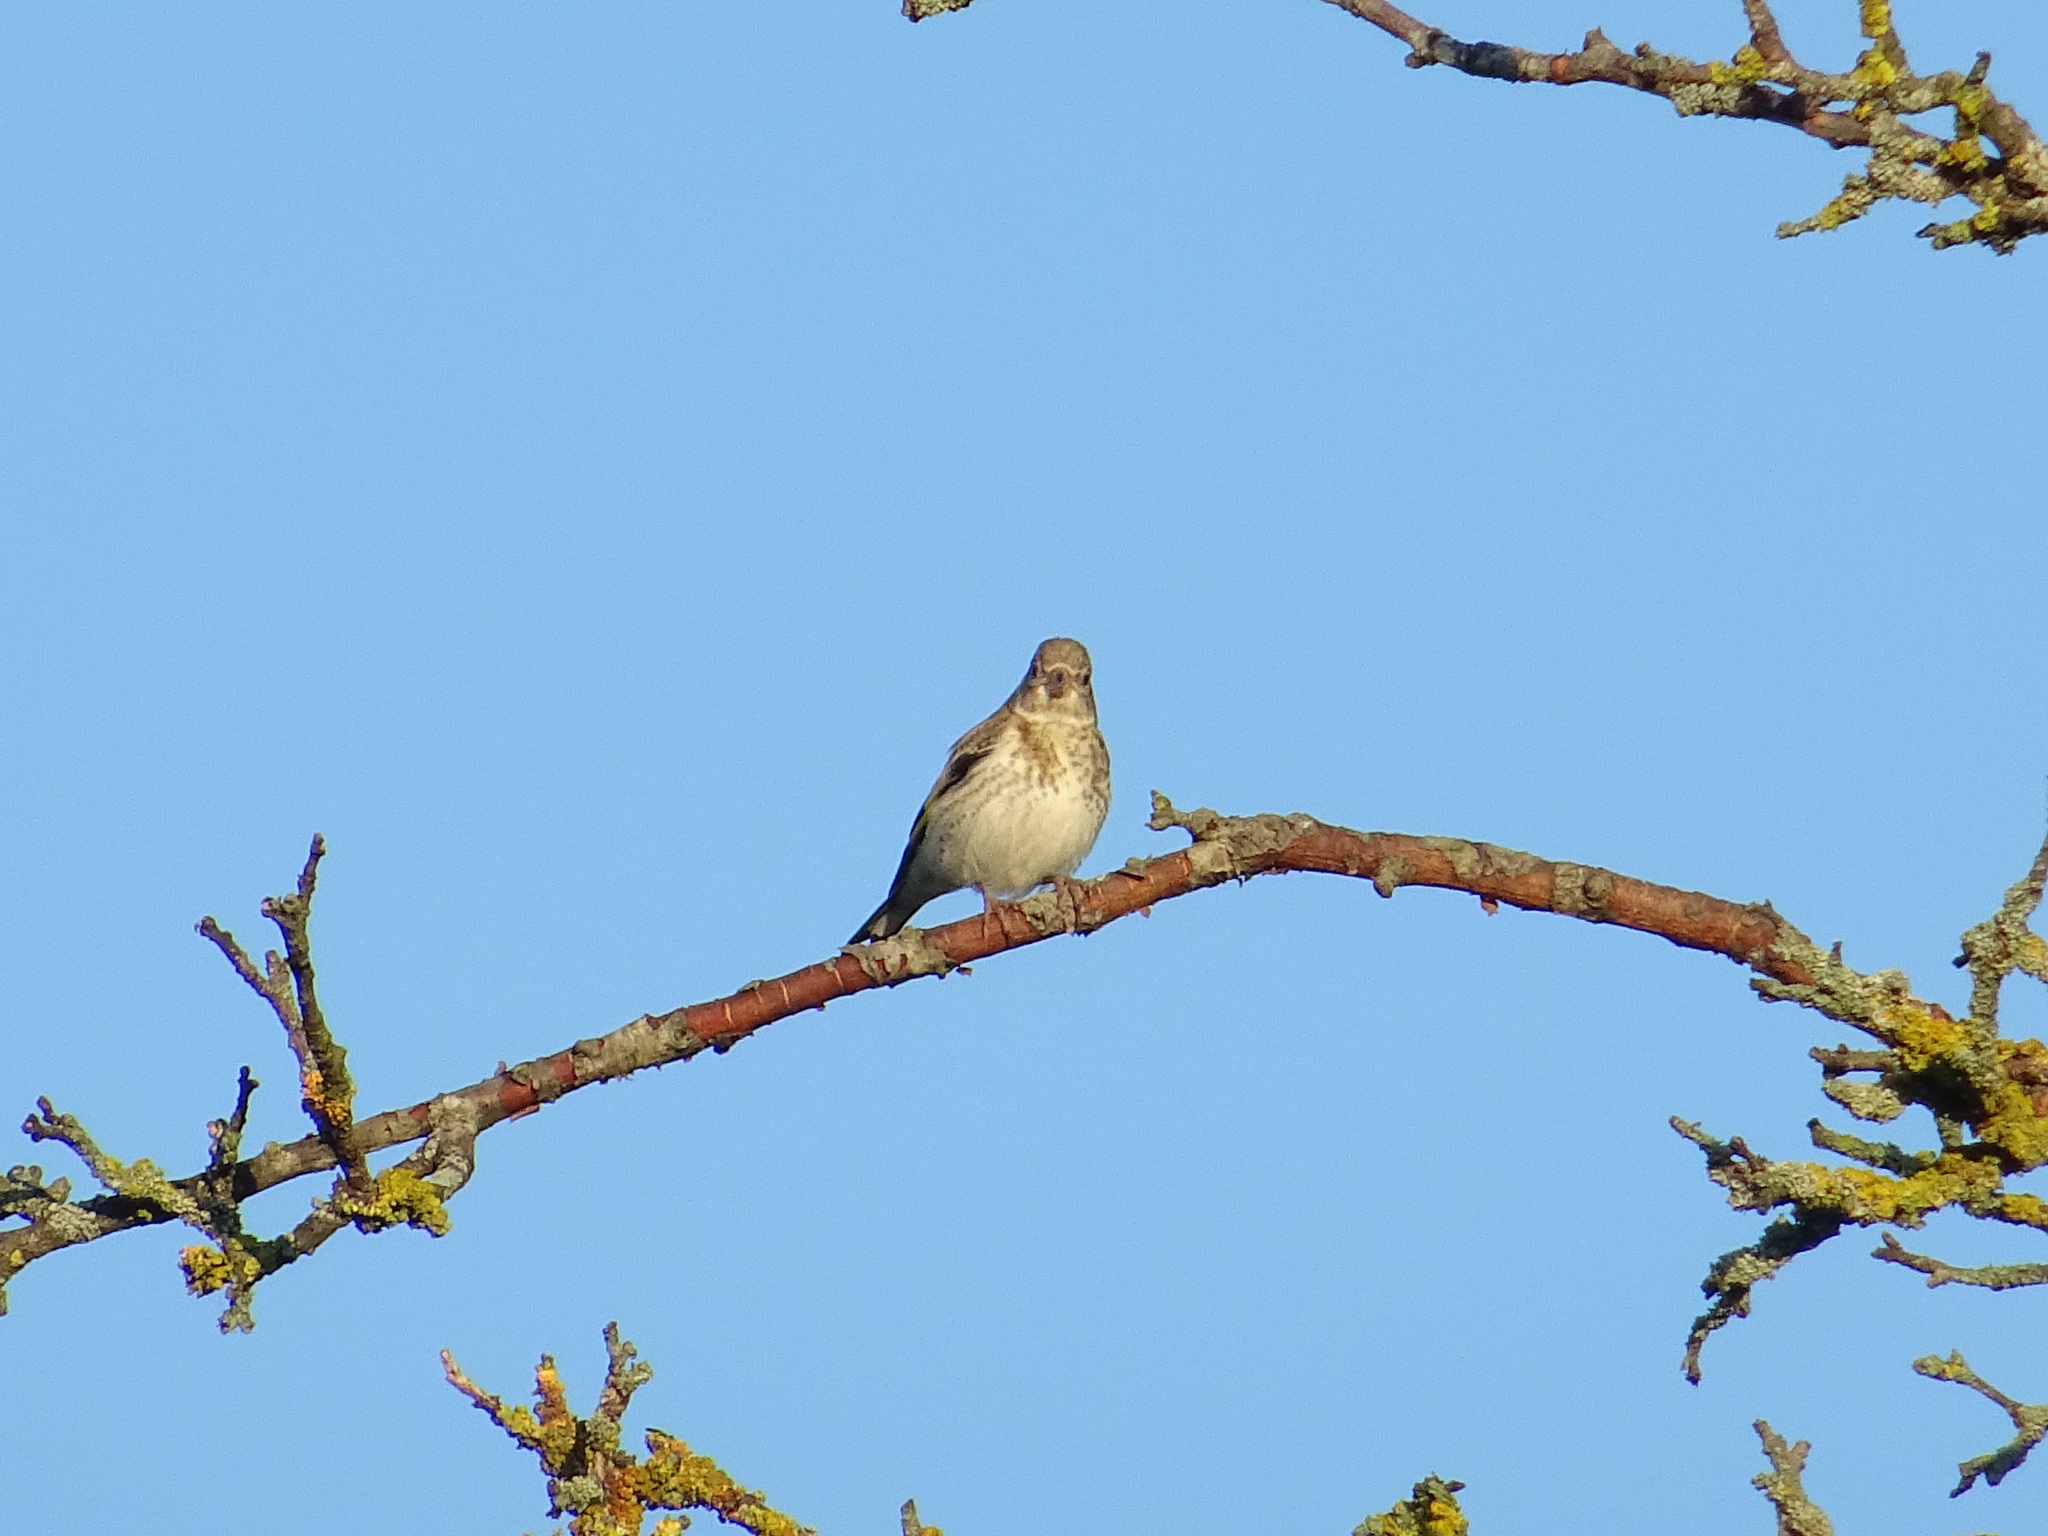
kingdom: Animalia
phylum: Chordata
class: Aves
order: Passeriformes
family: Fringillidae
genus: Carduelis
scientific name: Carduelis carduelis
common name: European goldfinch
